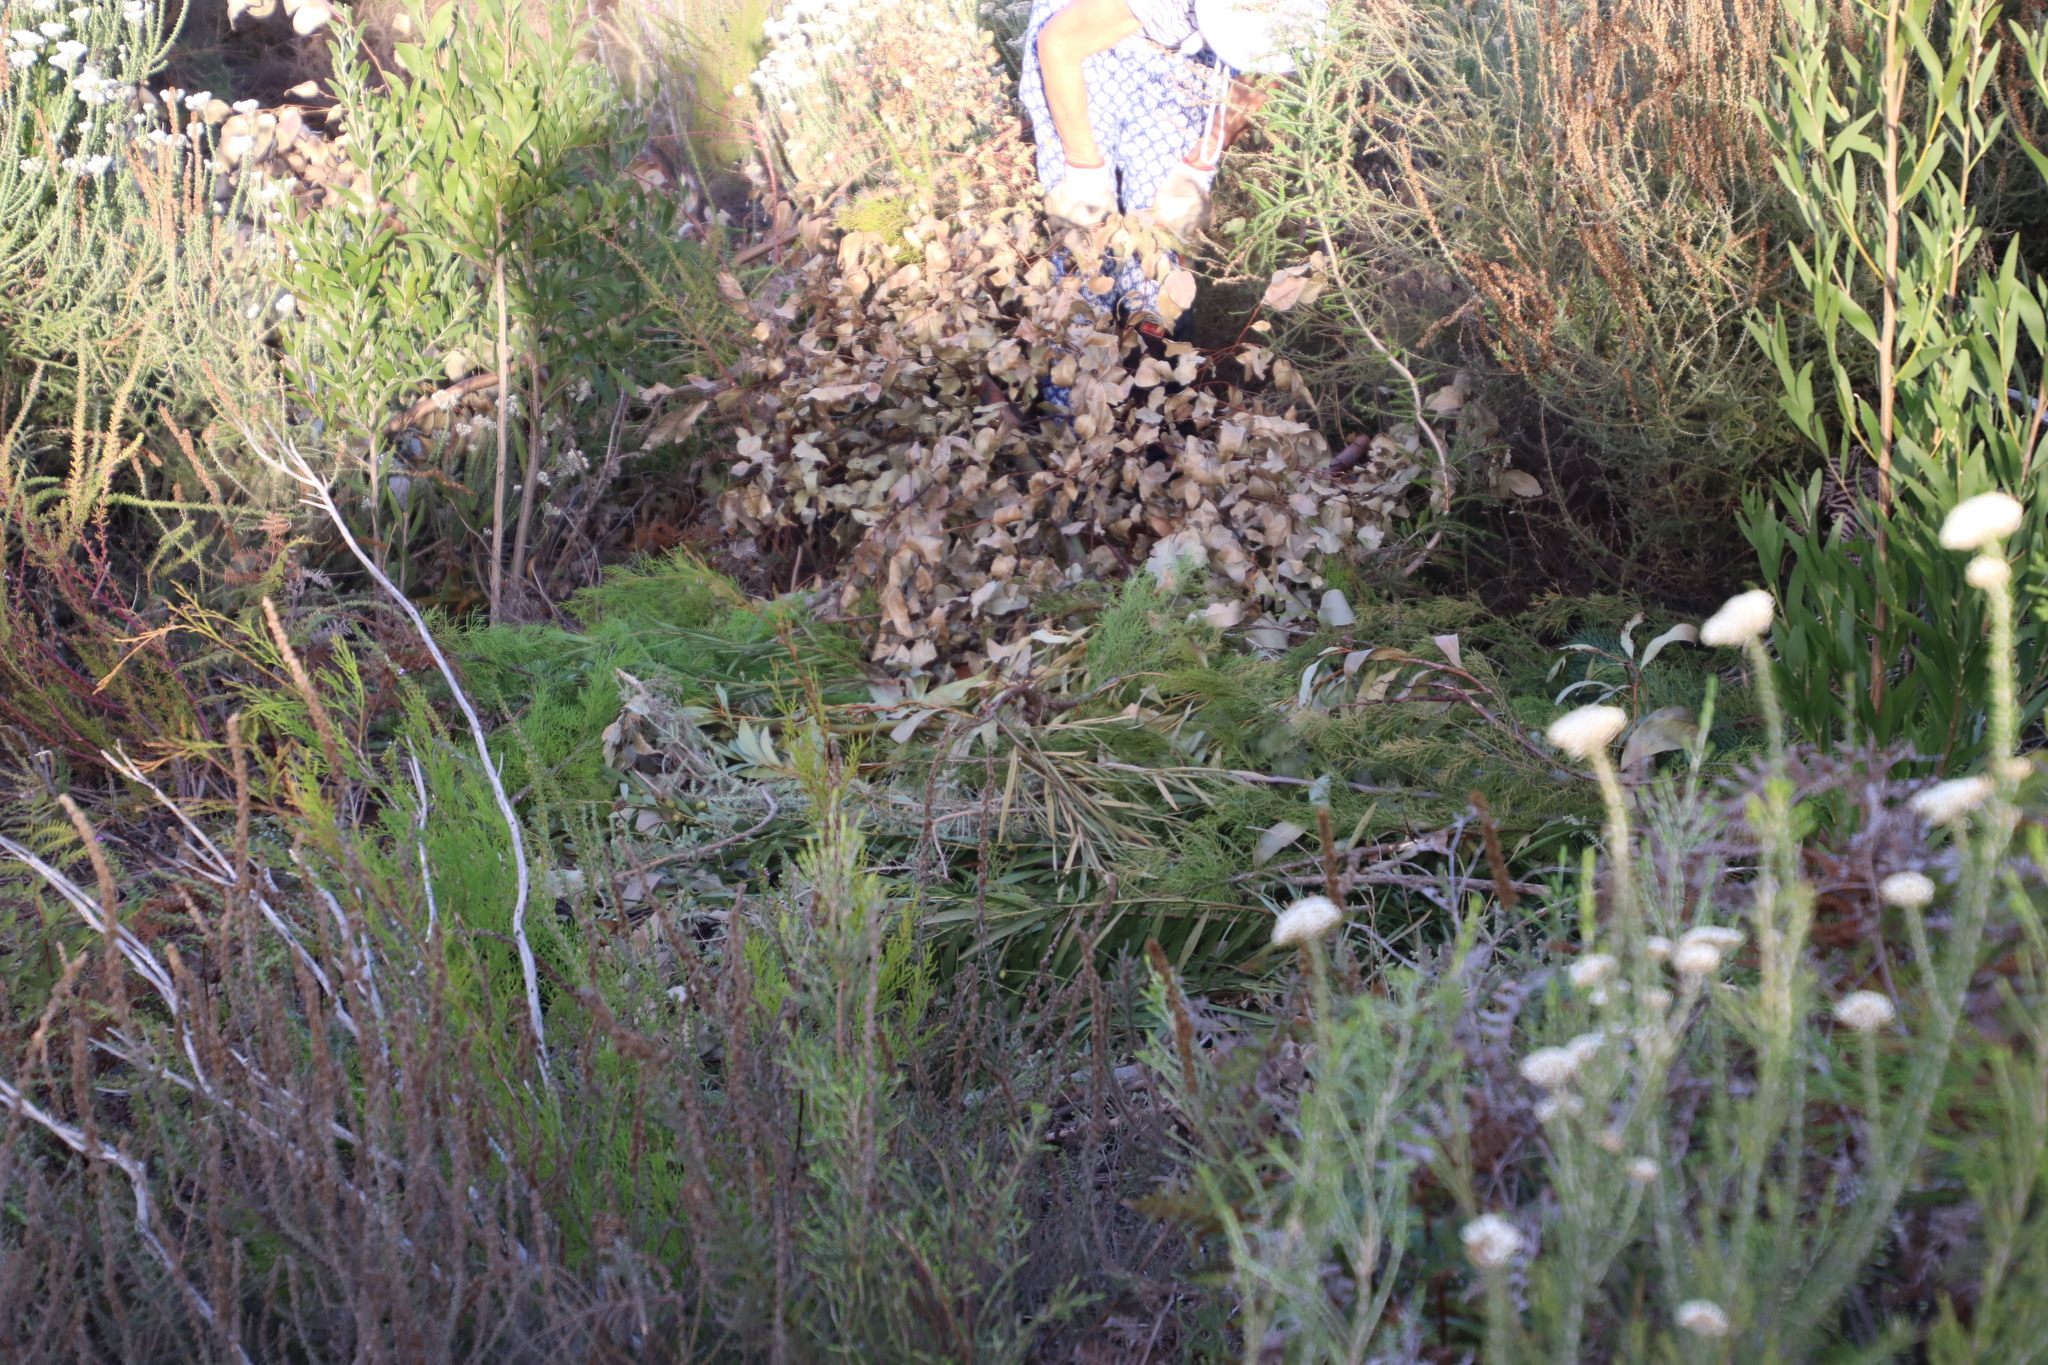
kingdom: Plantae
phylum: Tracheophyta
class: Pinopsida
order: Pinales
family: Cupressaceae
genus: Callitris
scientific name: Callitris rhomboidea
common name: Illawara mountain pine
